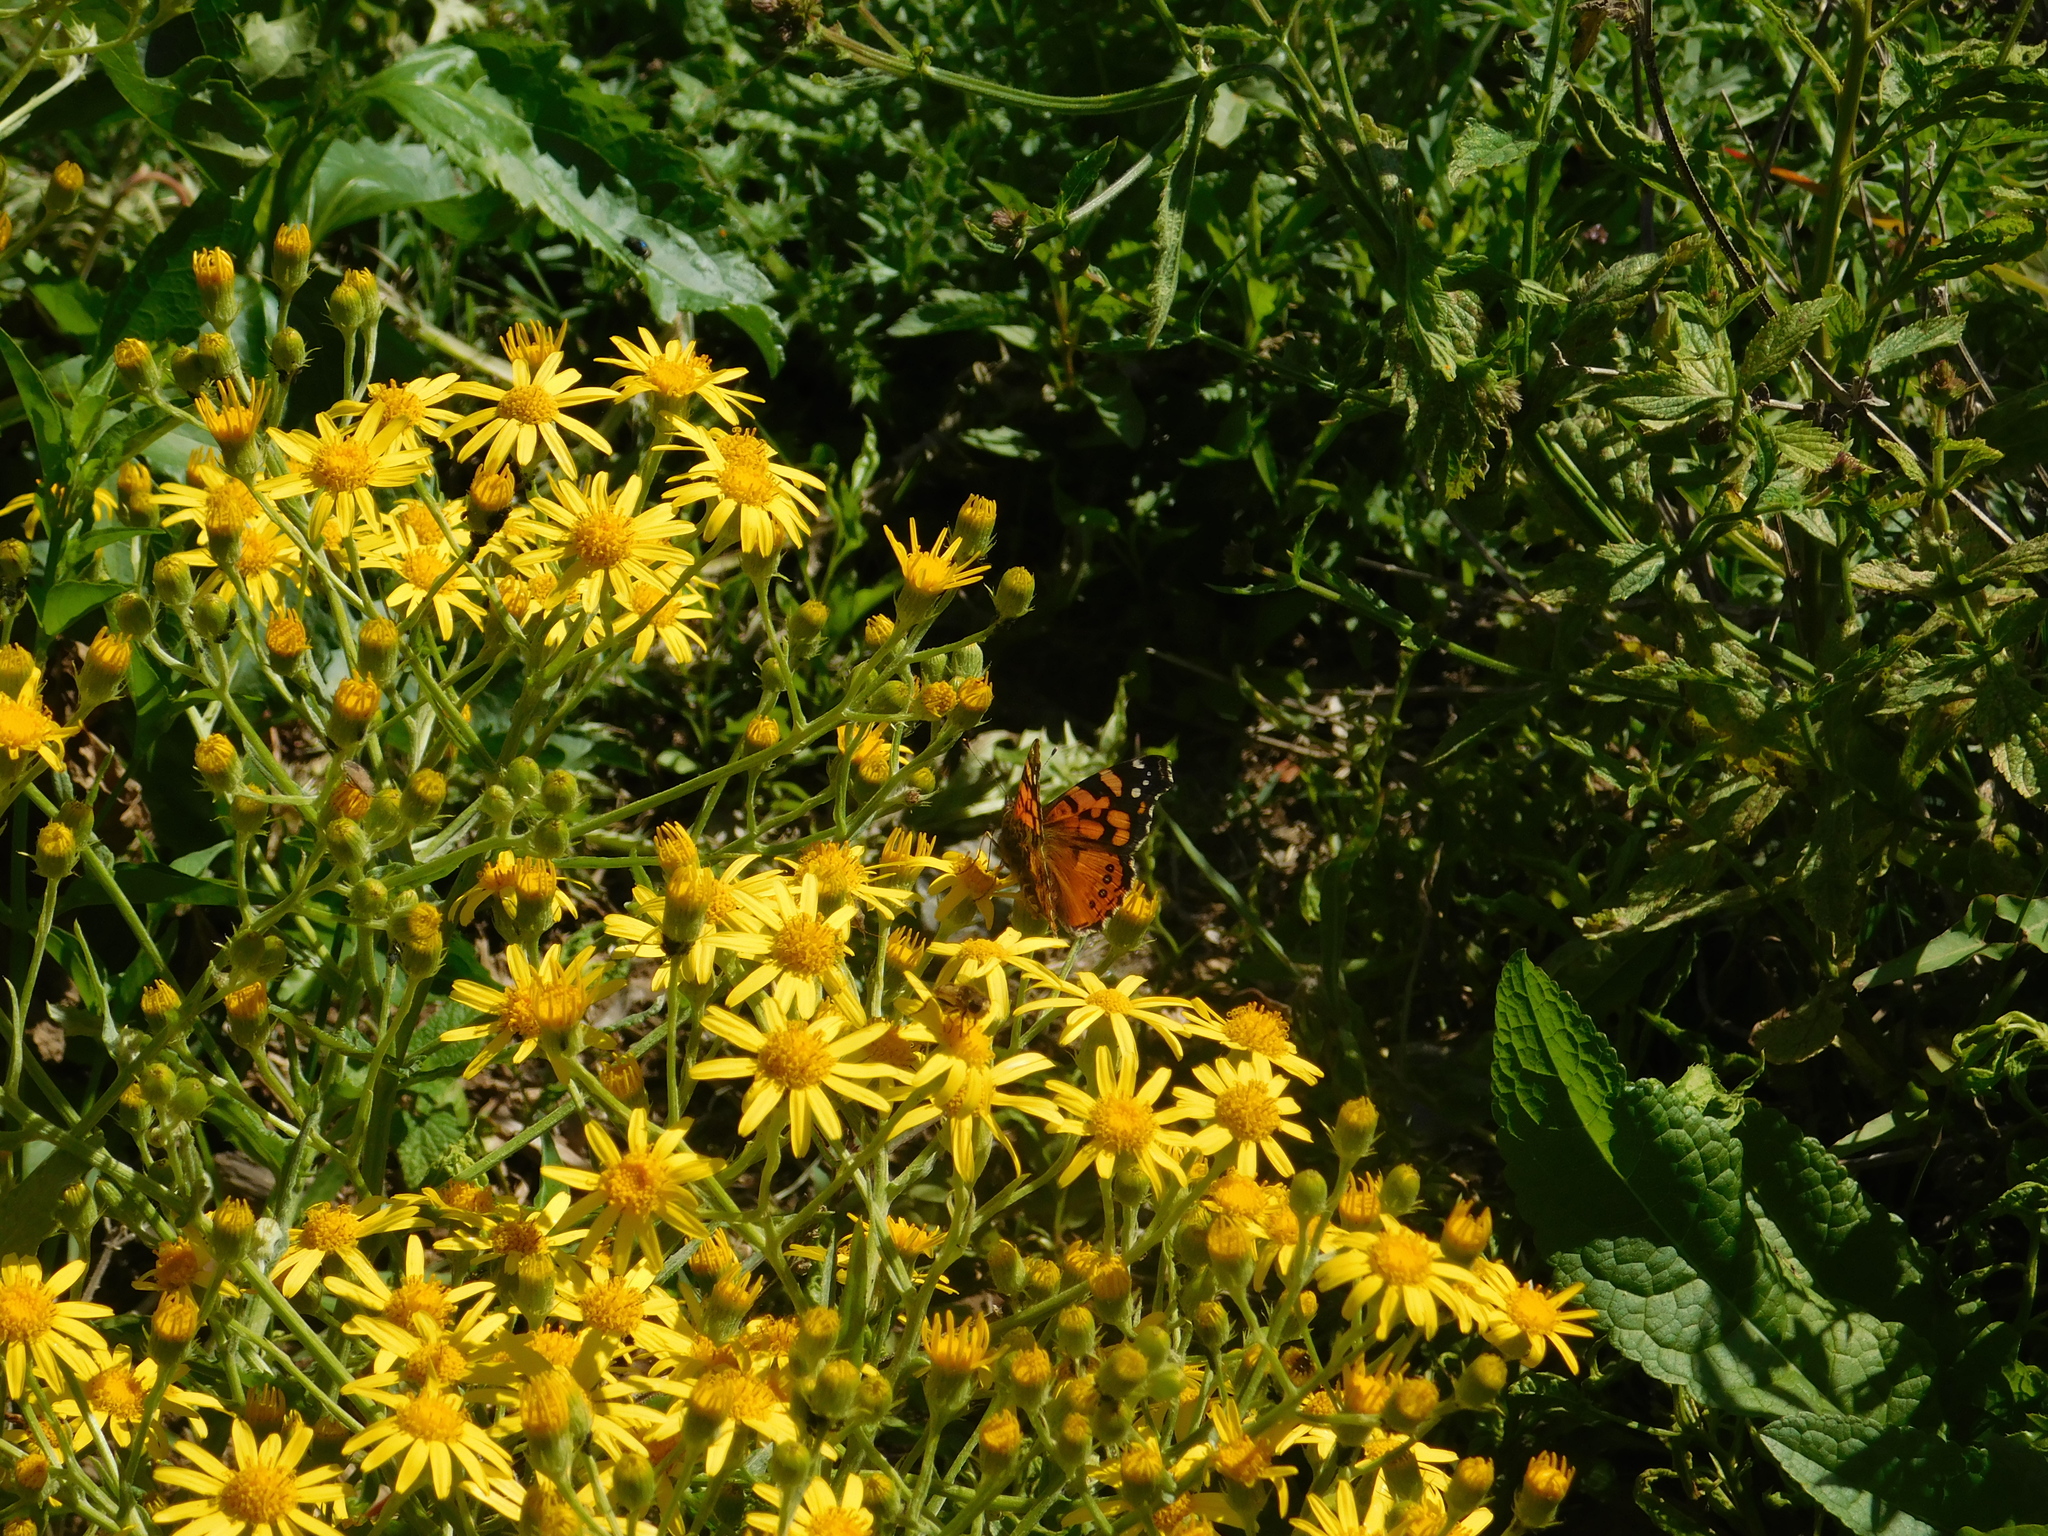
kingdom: Animalia
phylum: Arthropoda
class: Insecta
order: Lepidoptera
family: Nymphalidae
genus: Vanessa
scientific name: Vanessa carye
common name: Subtropical lady
